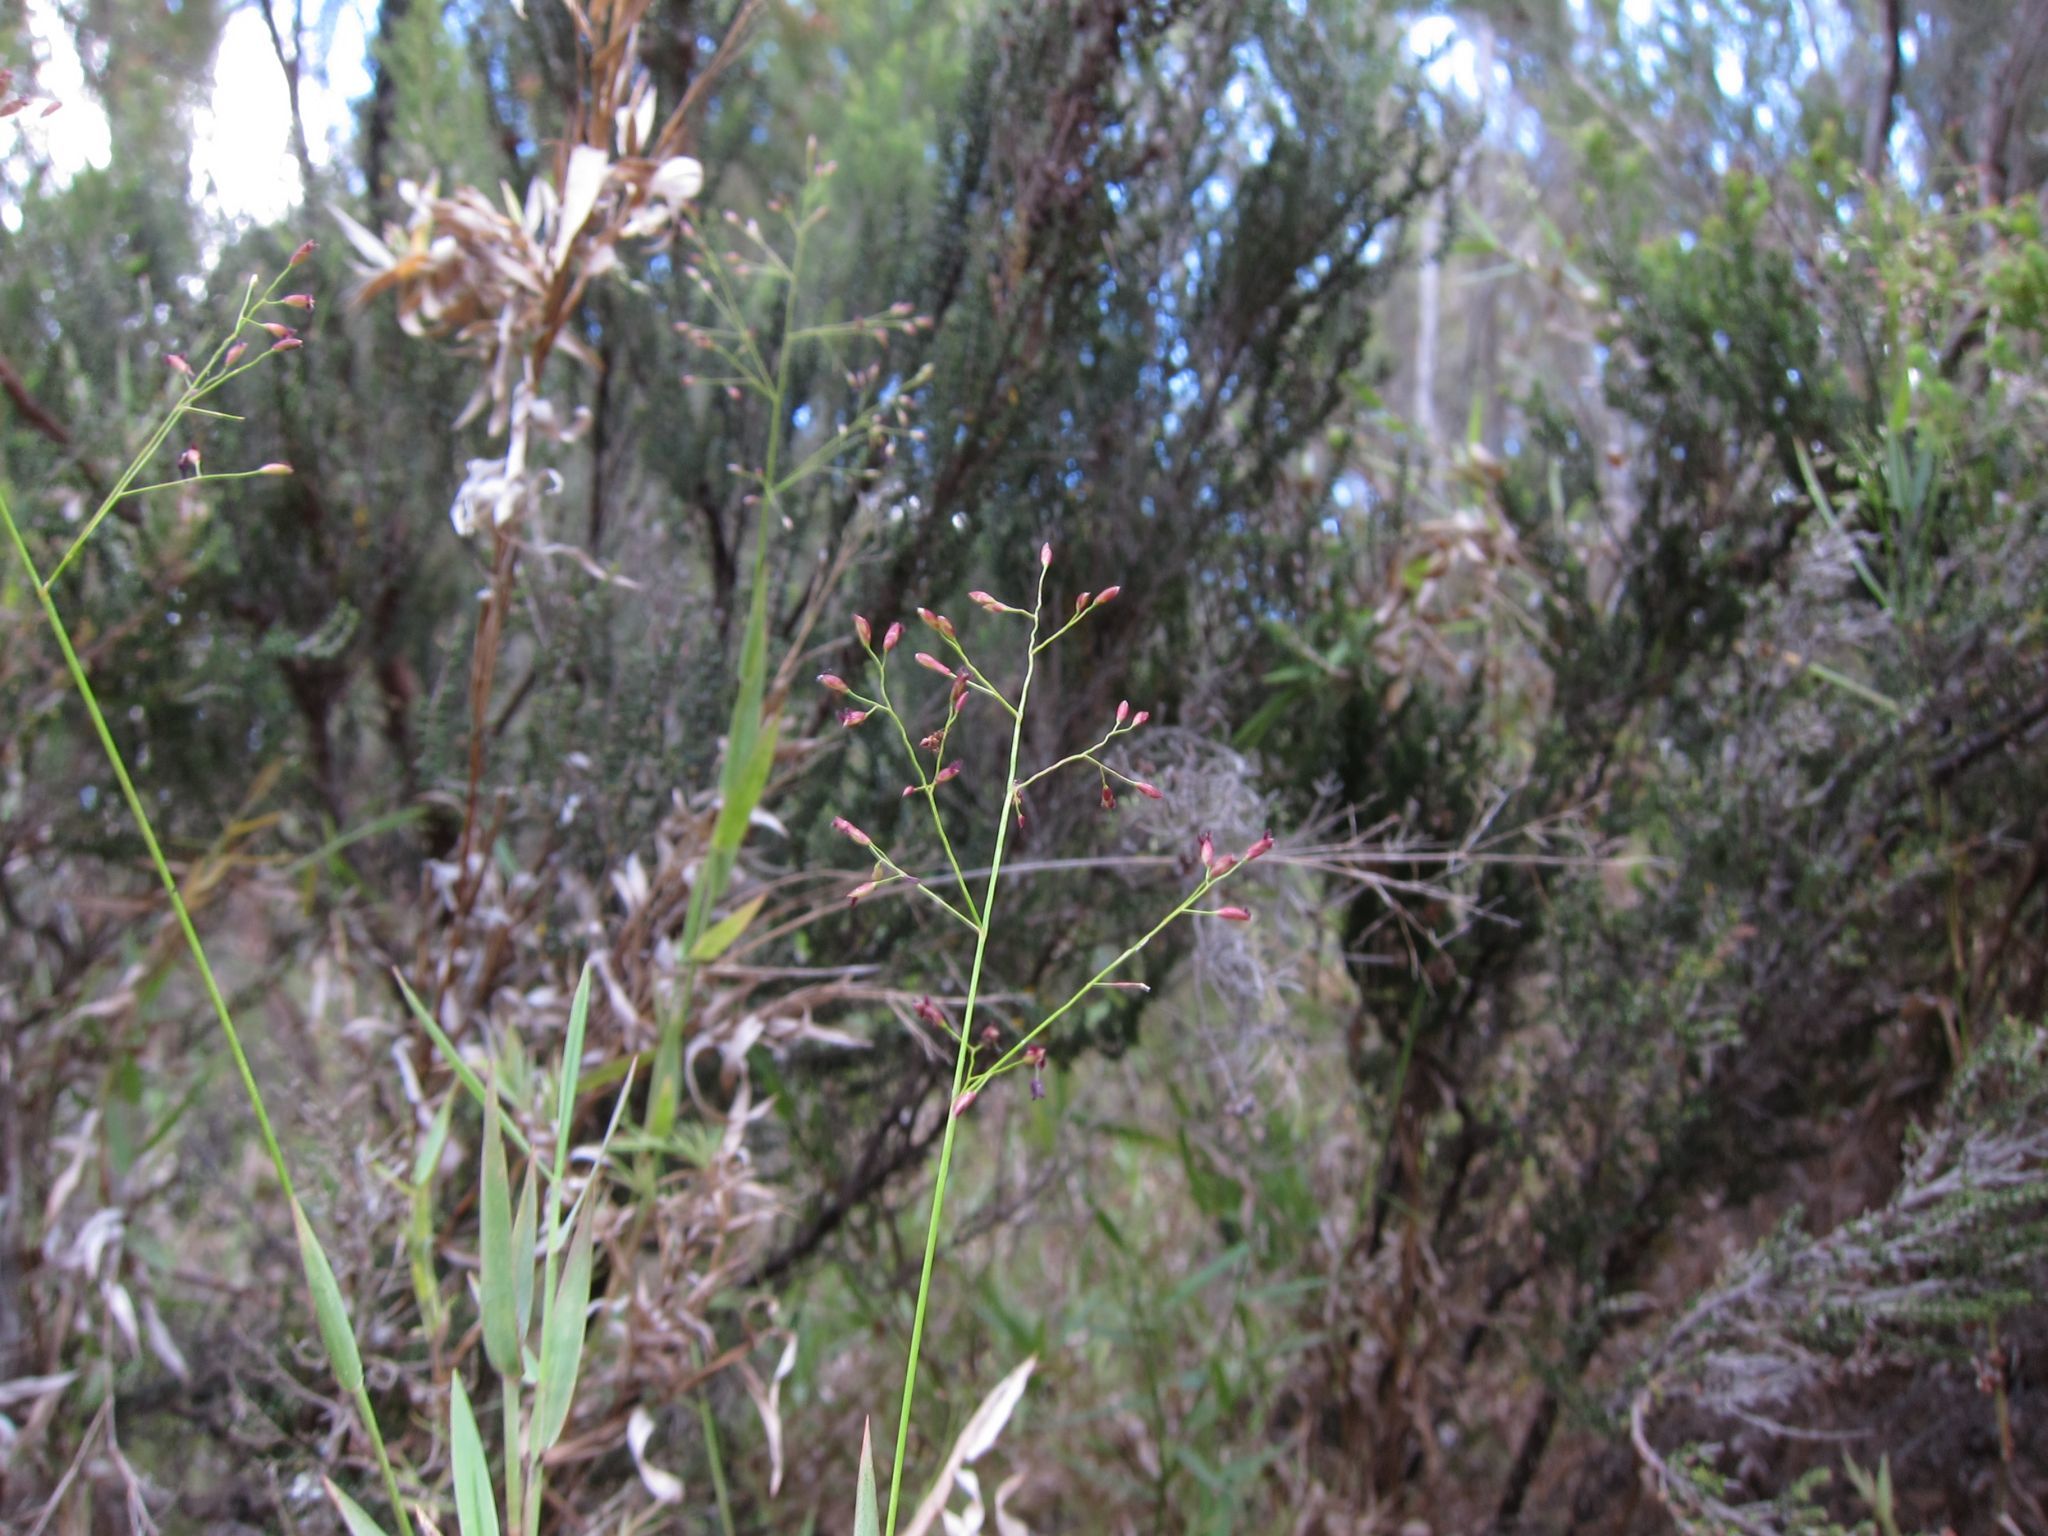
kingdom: Plantae
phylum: Tracheophyta
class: Liliopsida
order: Poales
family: Poaceae
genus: Panicum
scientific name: Panicum andringitrense
